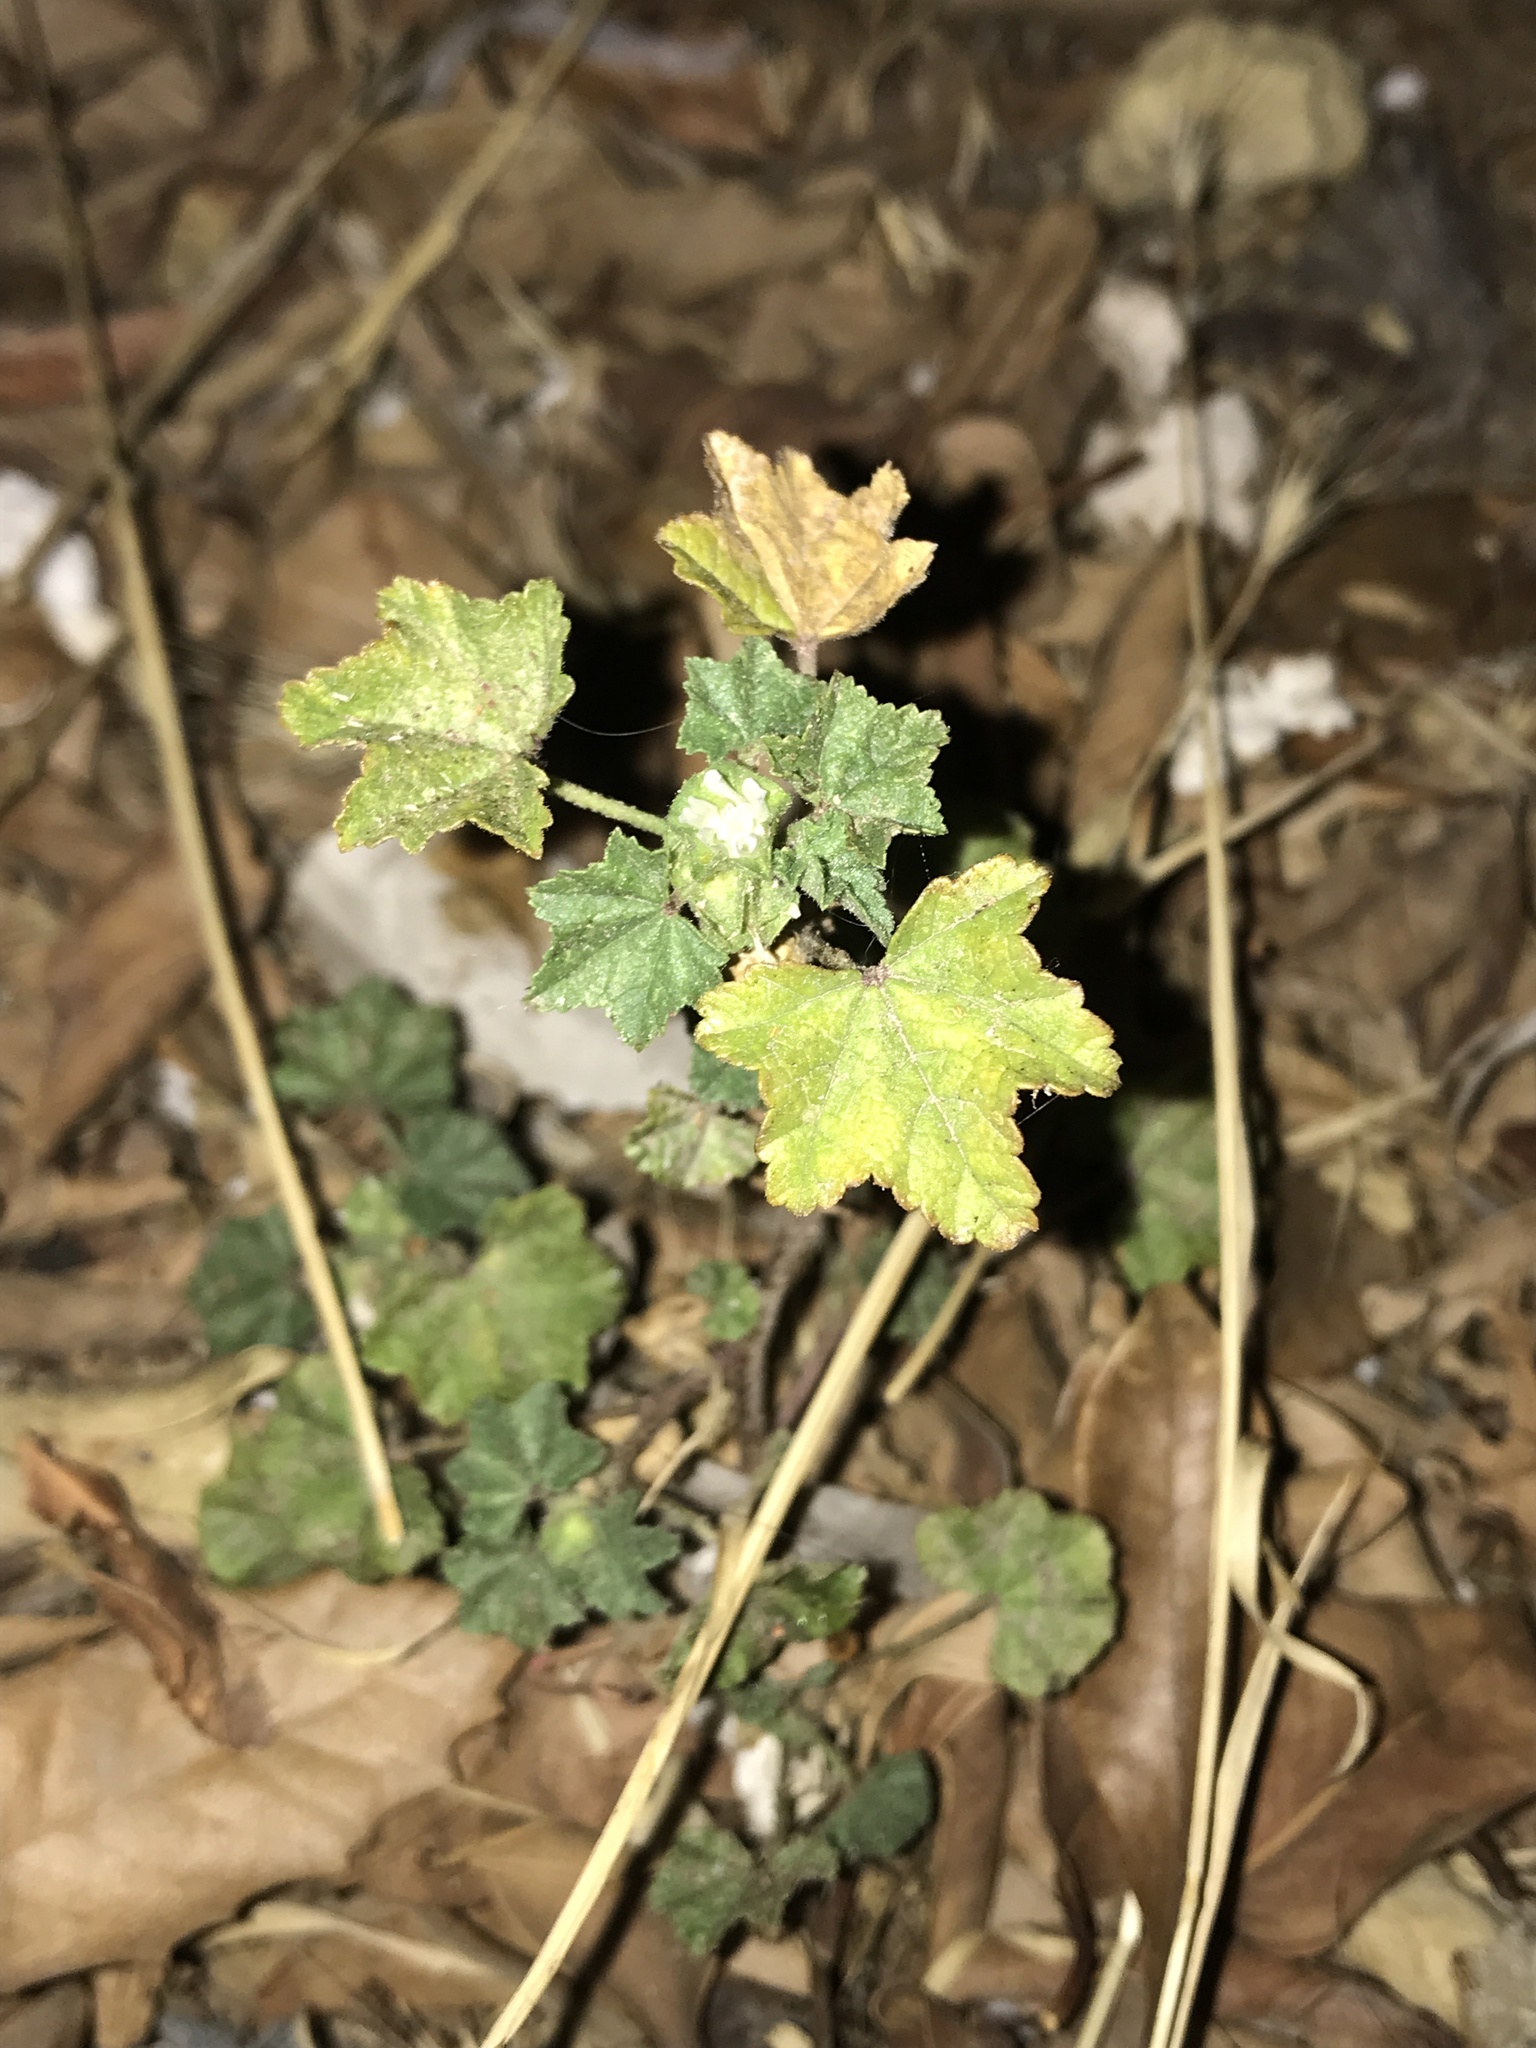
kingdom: Plantae
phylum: Tracheophyta
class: Magnoliopsida
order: Malvales
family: Malvaceae
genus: Malva
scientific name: Malva parviflora
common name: Least mallow
